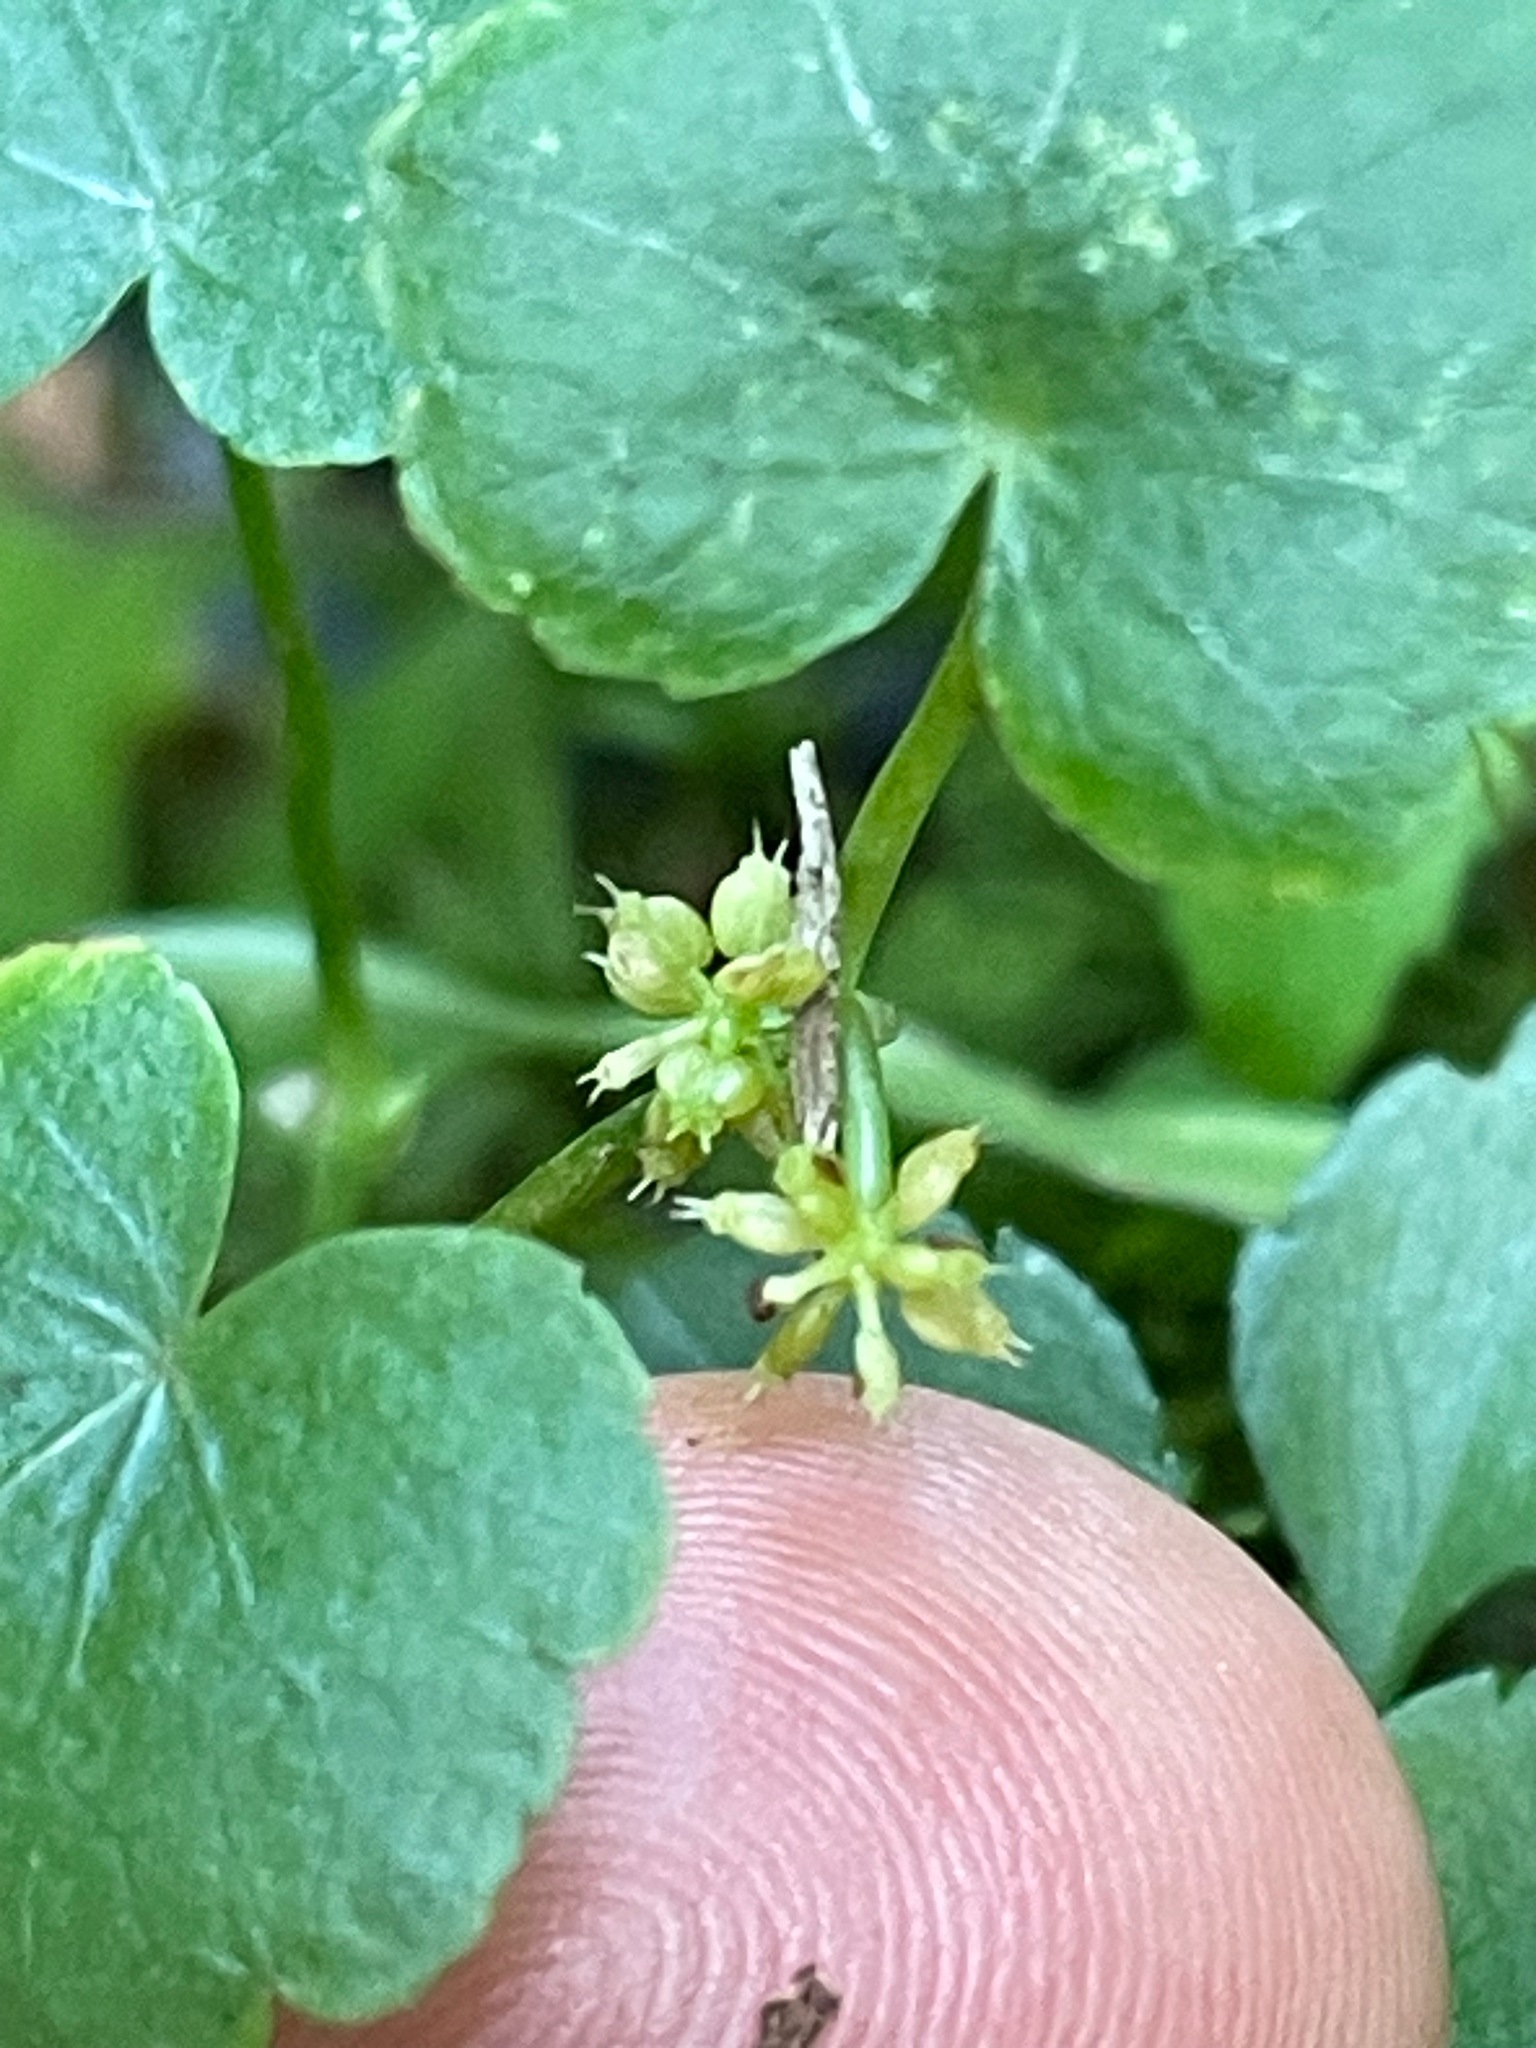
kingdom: Plantae
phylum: Tracheophyta
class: Magnoliopsida
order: Apiales
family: Araliaceae
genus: Hydrocotyle
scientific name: Hydrocotyle americana
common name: American water-pennywort
